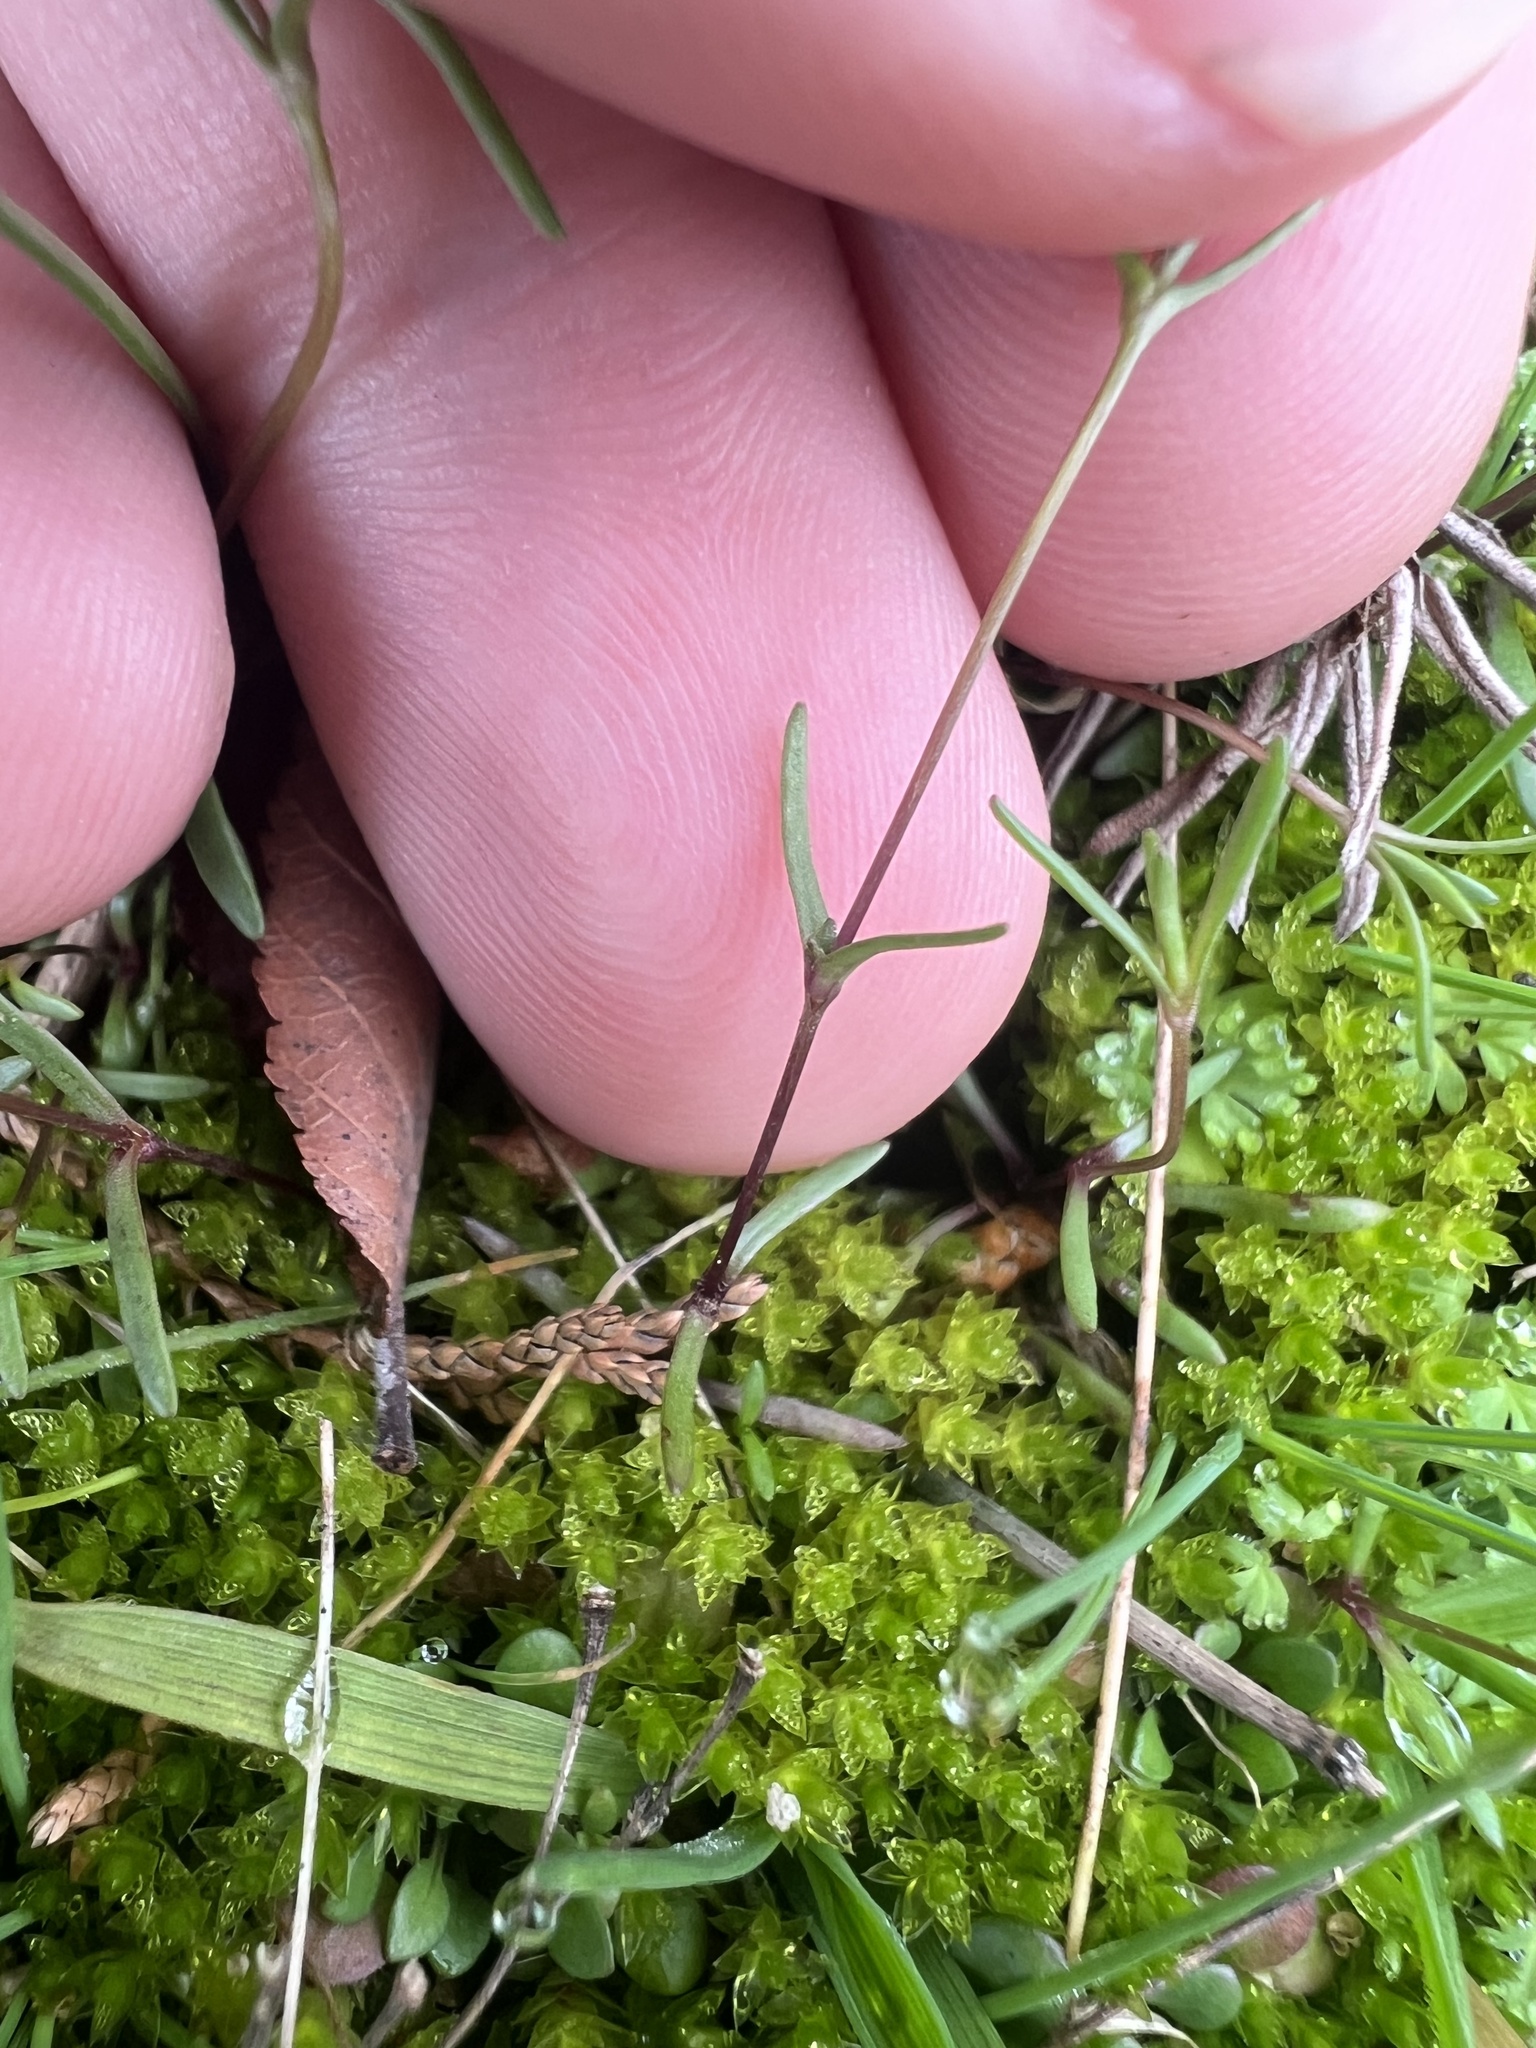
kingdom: Plantae
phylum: Tracheophyta
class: Magnoliopsida
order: Caryophyllales
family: Caryophyllaceae
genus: Geocarpon
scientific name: Geocarpon glabrum
